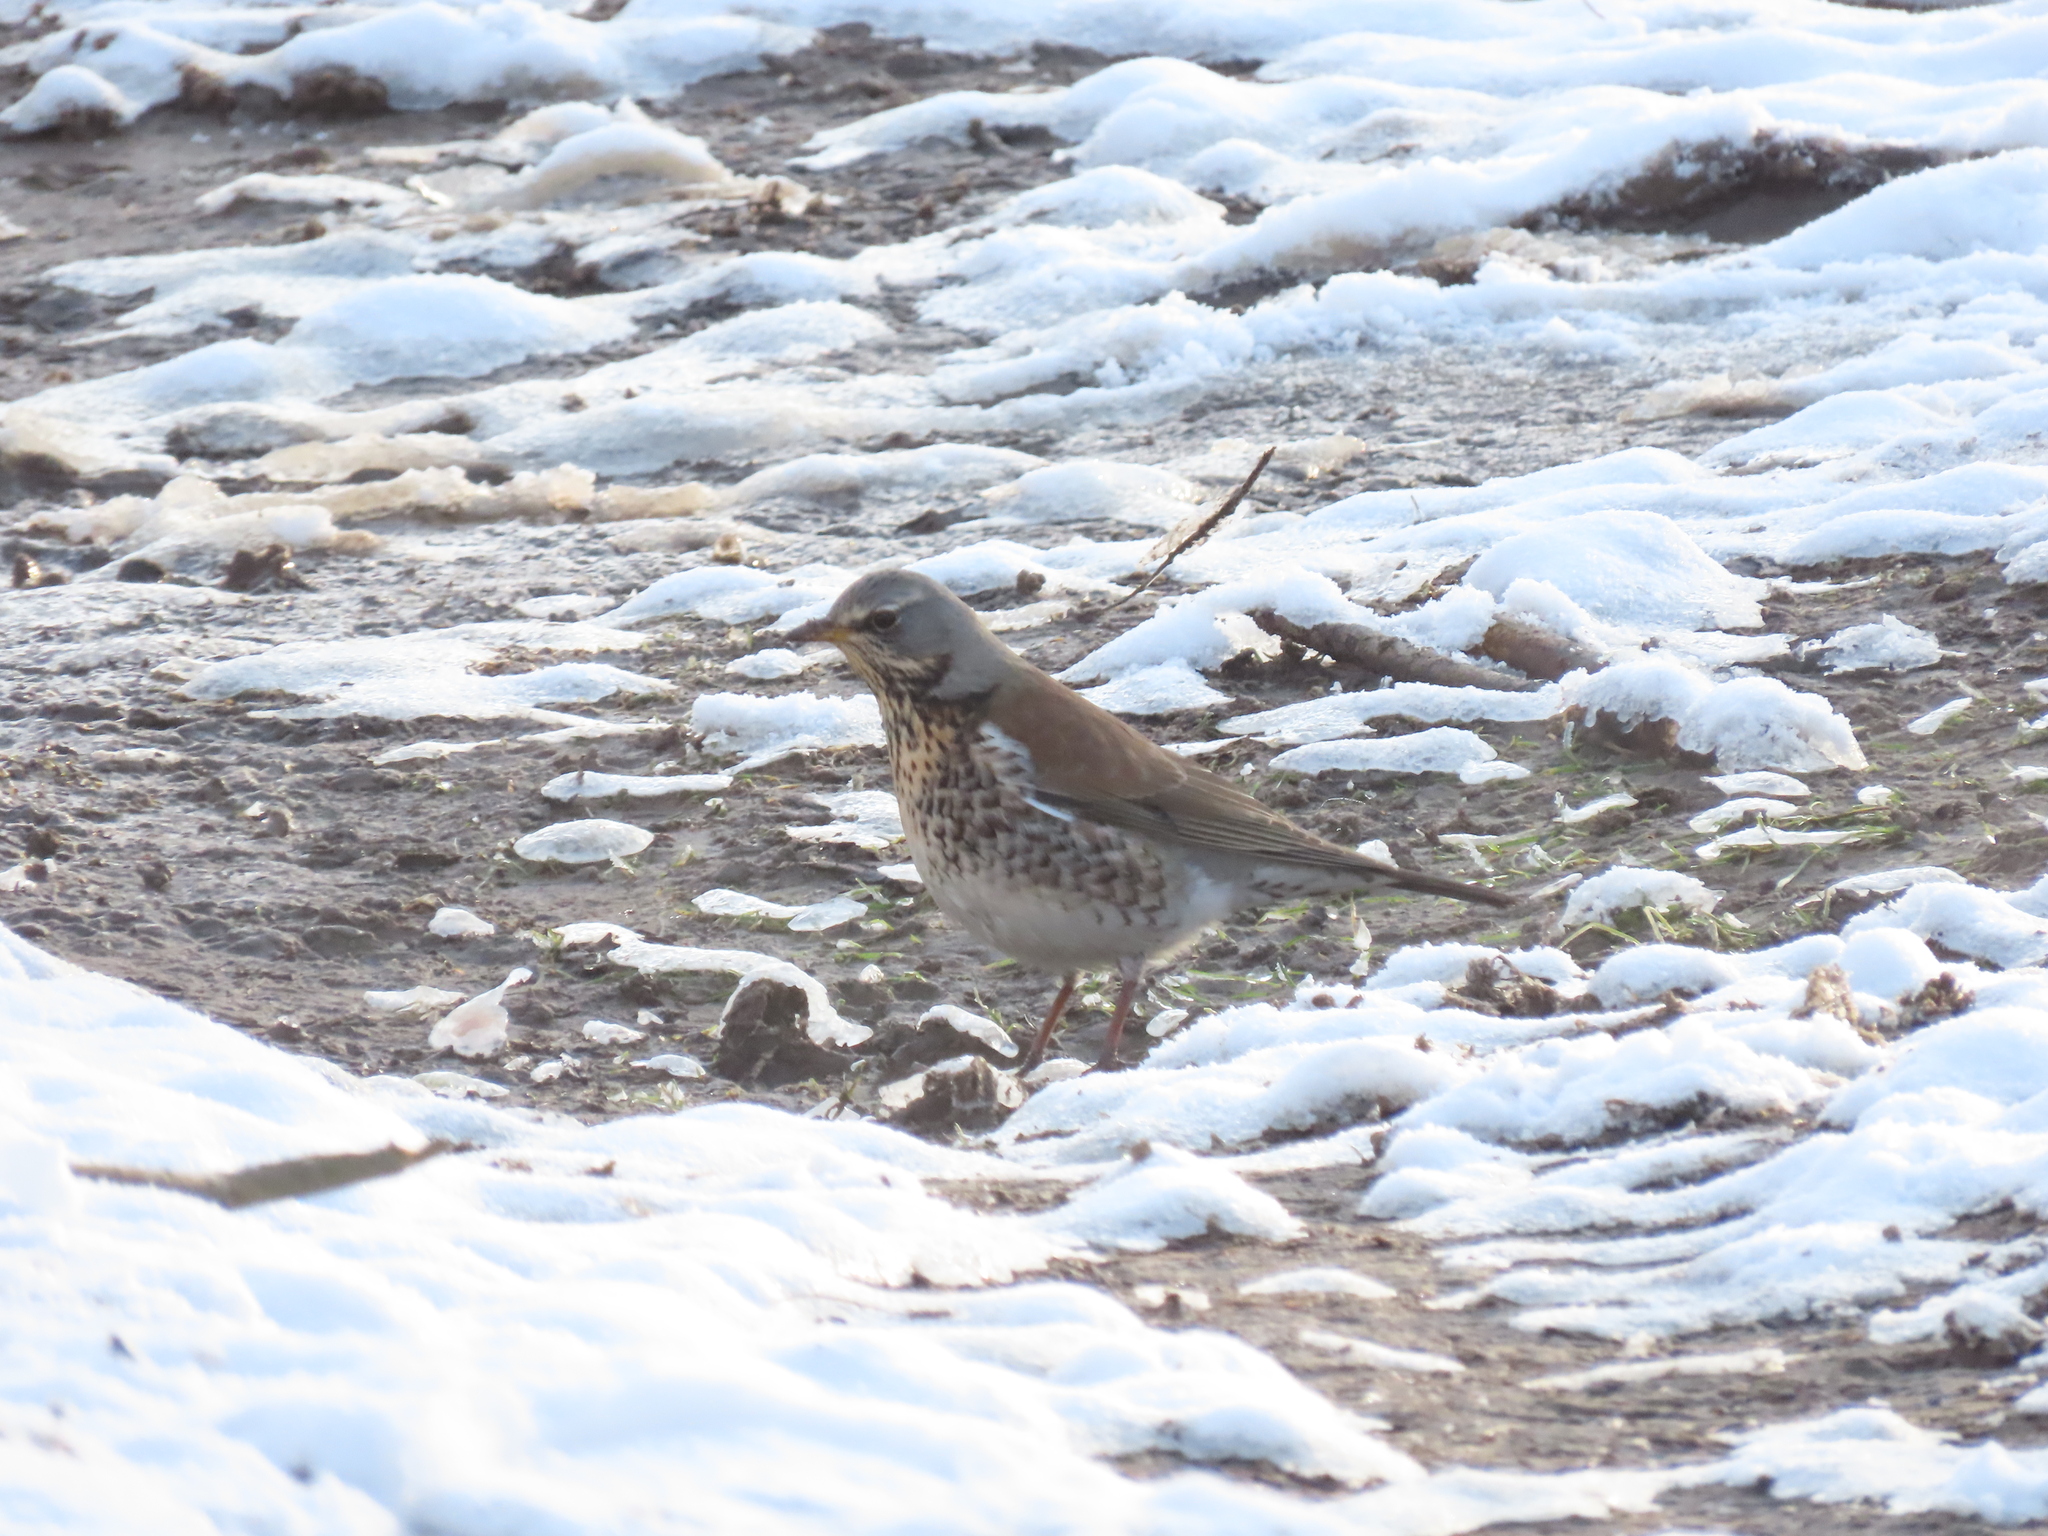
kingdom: Animalia
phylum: Chordata
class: Aves
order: Passeriformes
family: Turdidae
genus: Turdus
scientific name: Turdus pilaris
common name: Fieldfare
